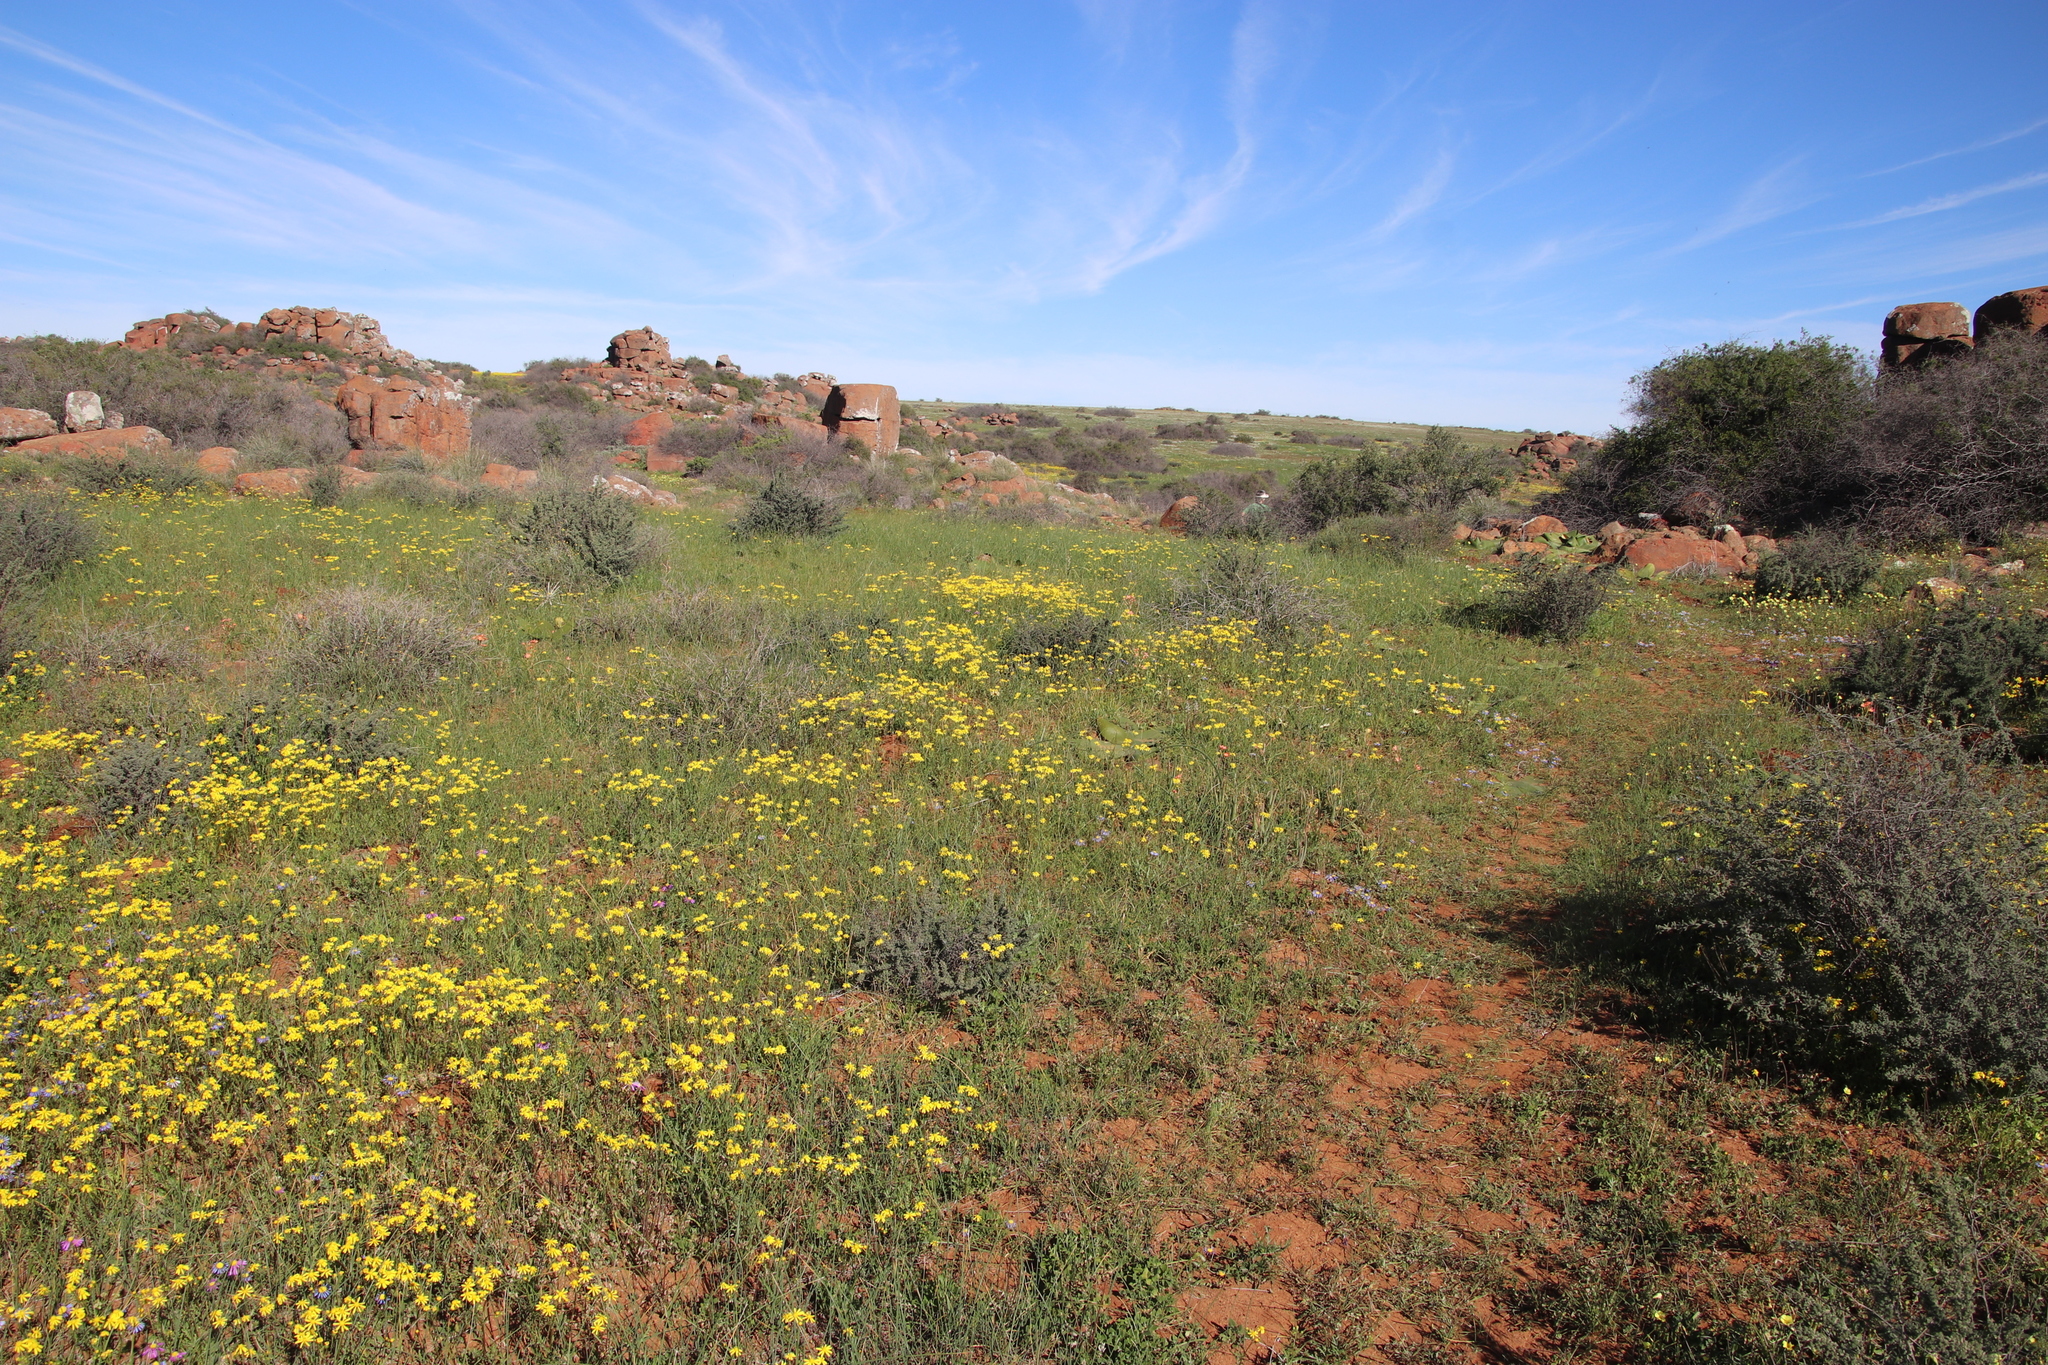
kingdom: Plantae
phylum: Tracheophyta
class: Magnoliopsida
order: Asterales
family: Asteraceae
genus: Senecio
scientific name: Senecio abruptus
